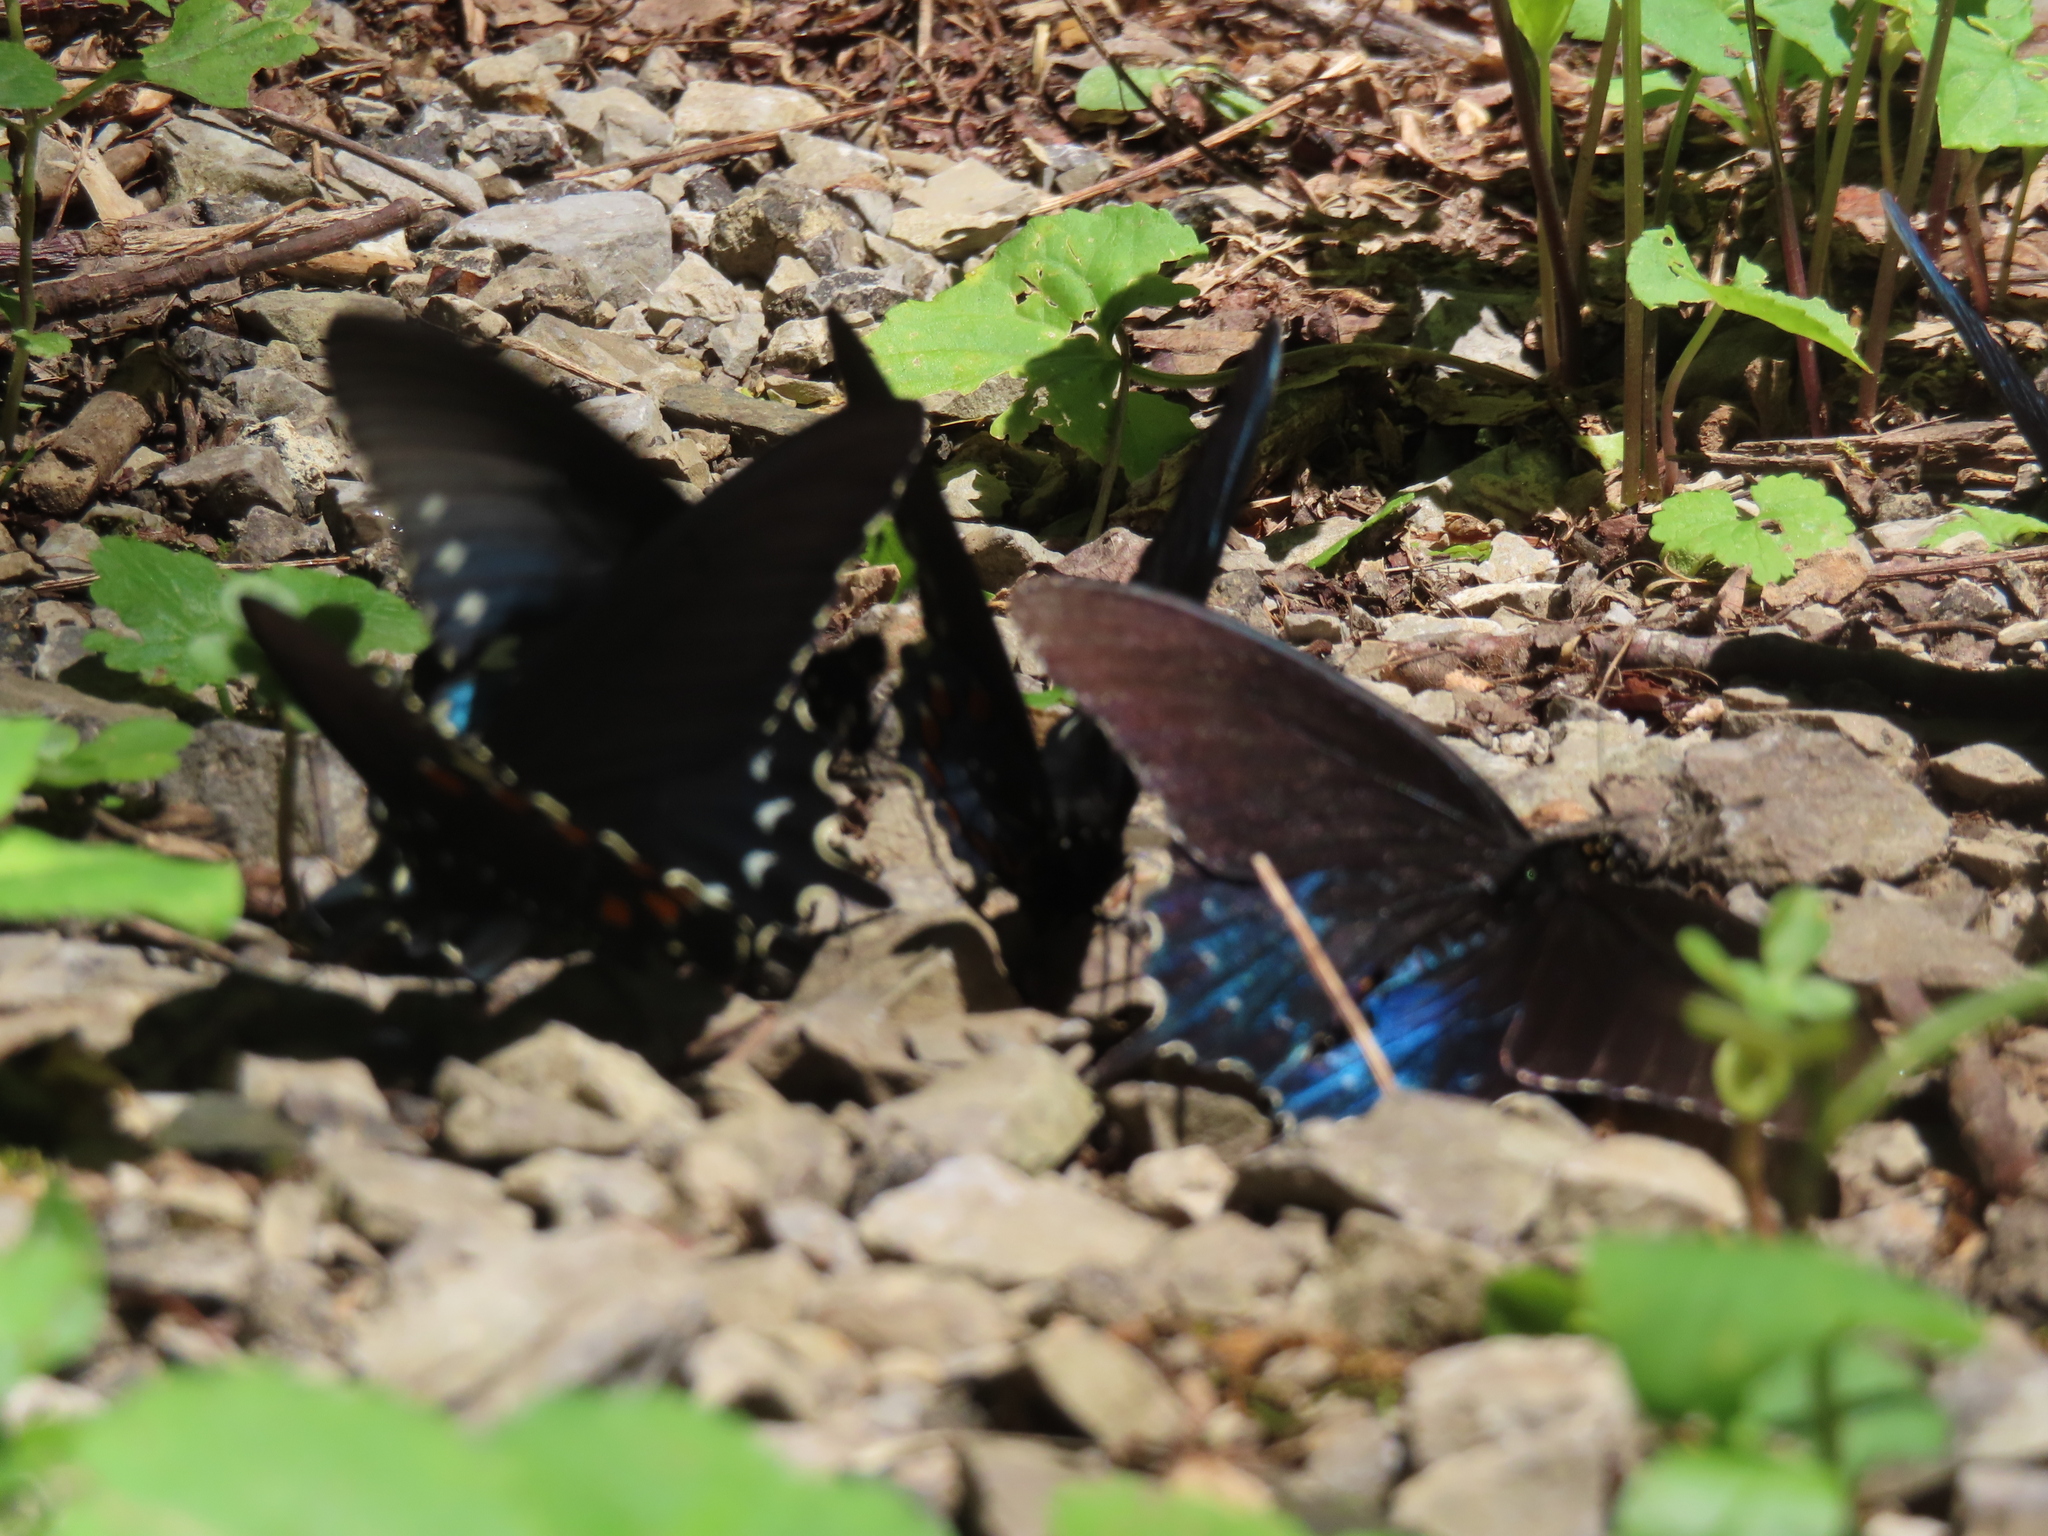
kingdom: Animalia
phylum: Arthropoda
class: Insecta
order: Lepidoptera
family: Papilionidae
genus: Battus
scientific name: Battus philenor
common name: Pipevine swallowtail
